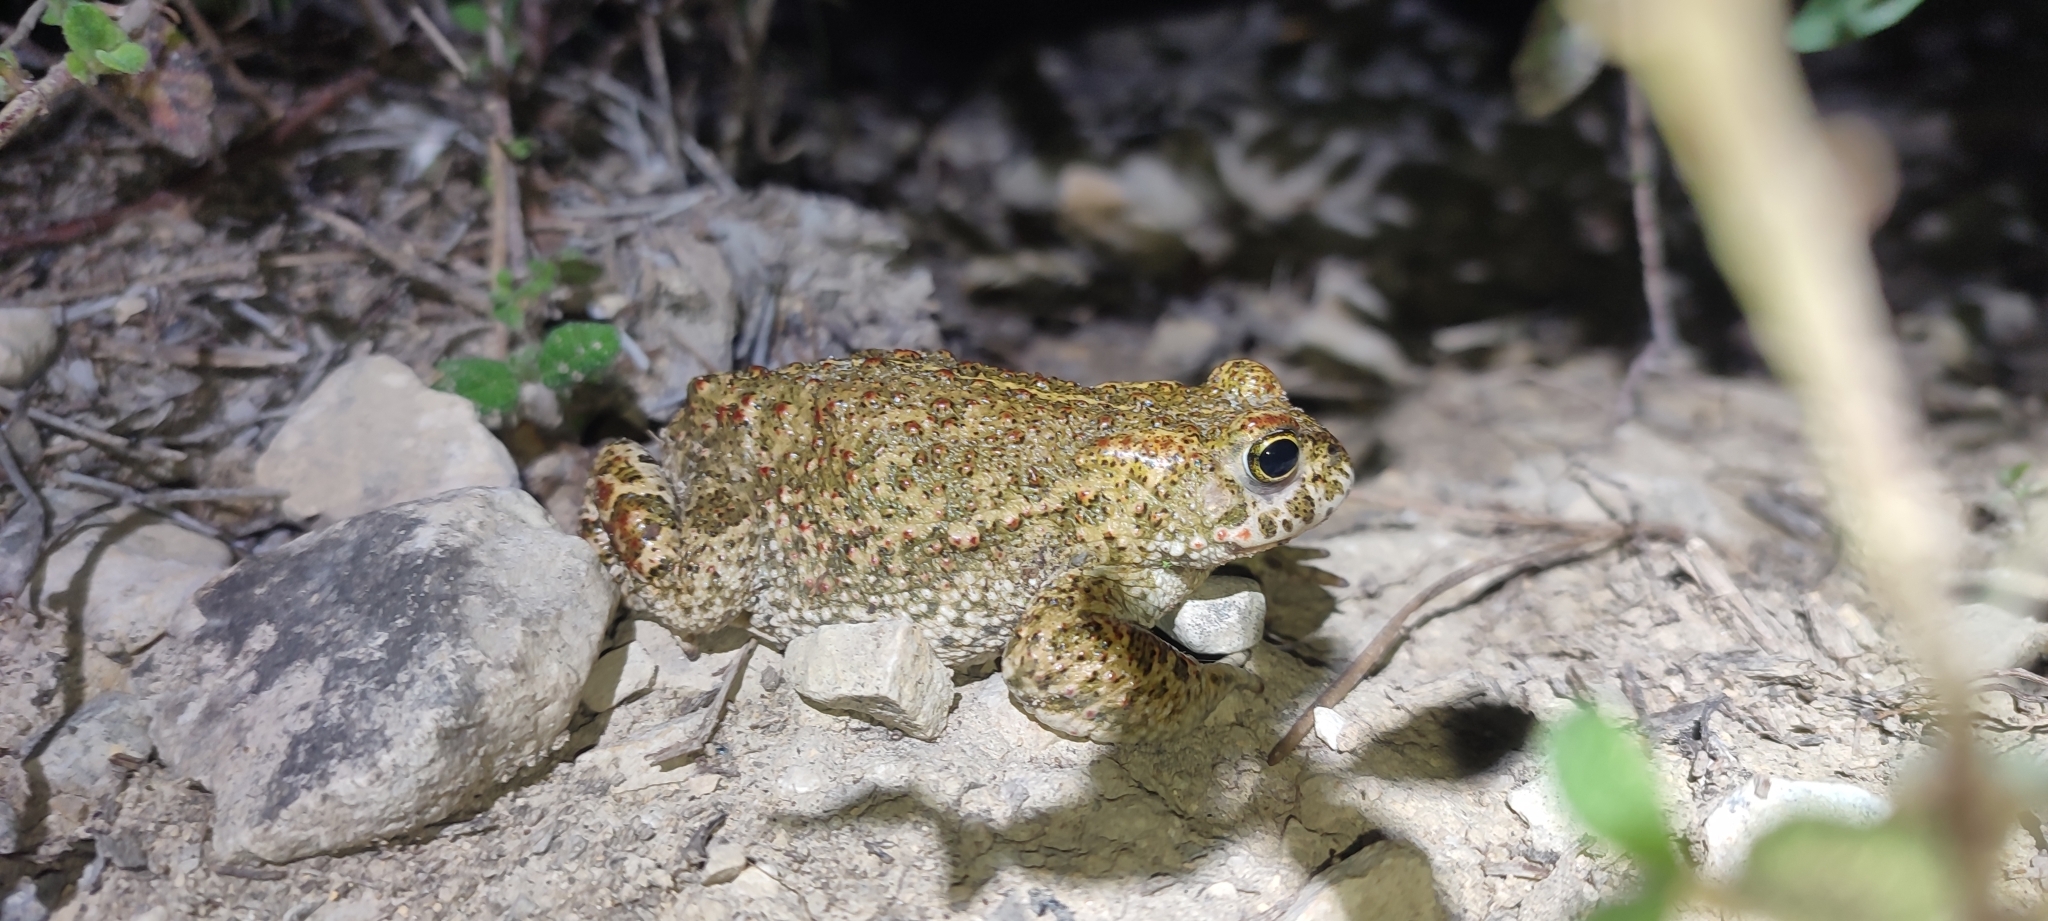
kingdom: Animalia
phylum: Chordata
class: Amphibia
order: Anura
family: Bufonidae
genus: Epidalea
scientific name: Epidalea calamita
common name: Natterjack toad
